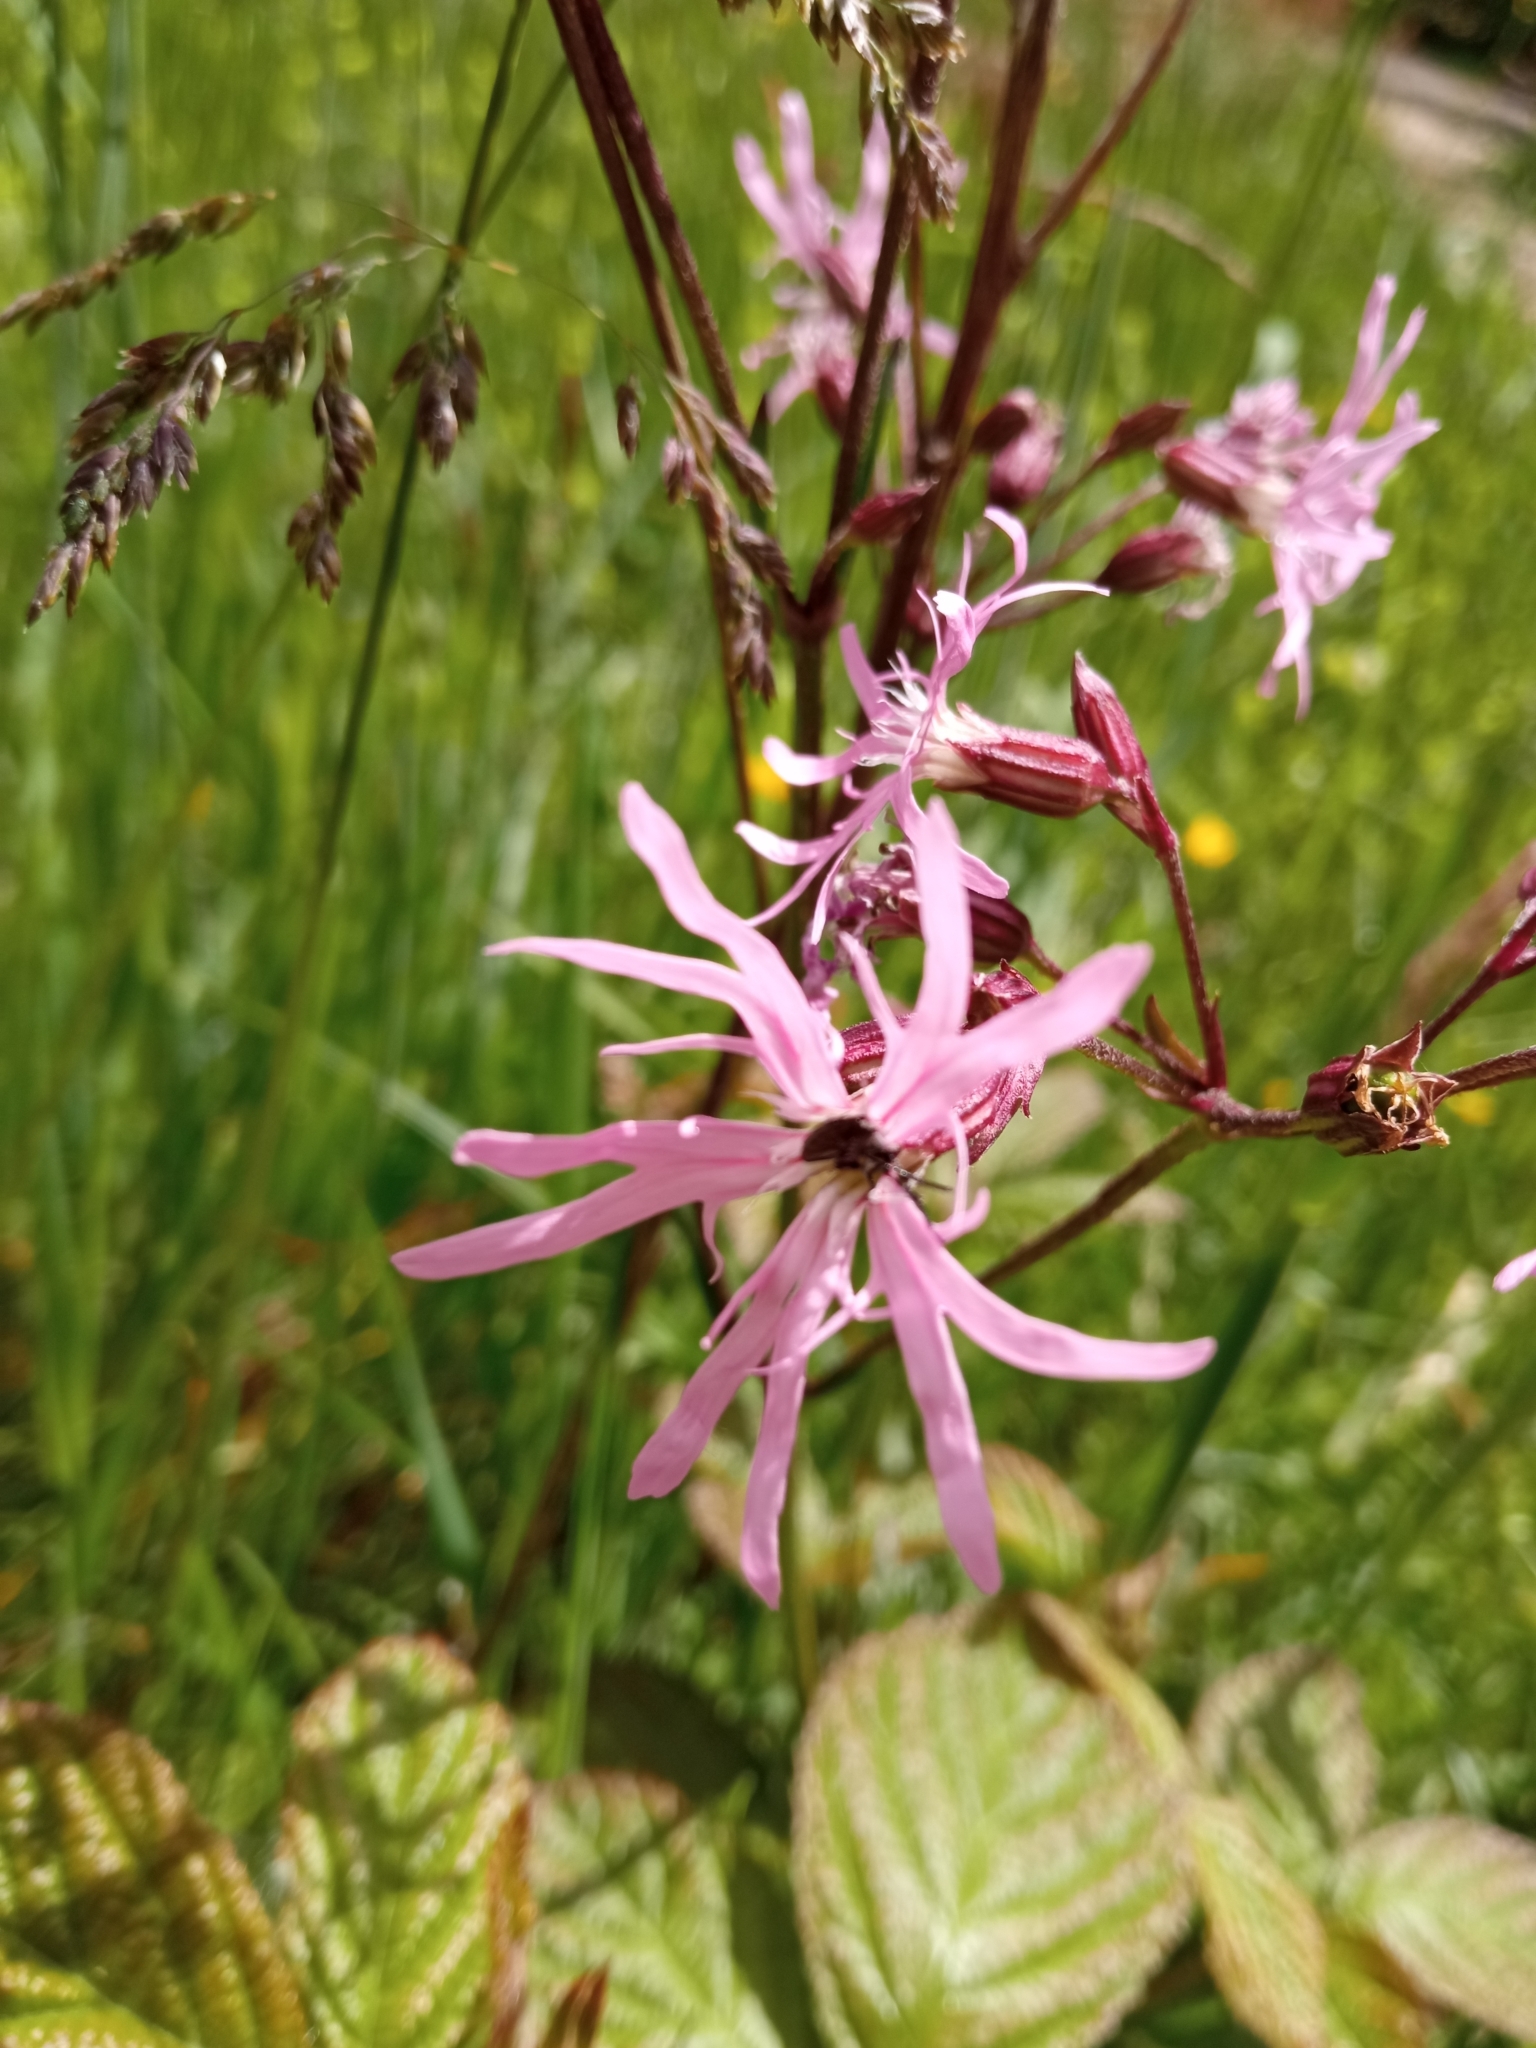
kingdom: Plantae
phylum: Tracheophyta
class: Magnoliopsida
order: Caryophyllales
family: Caryophyllaceae
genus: Silene
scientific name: Silene flos-cuculi
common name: Ragged-robin
